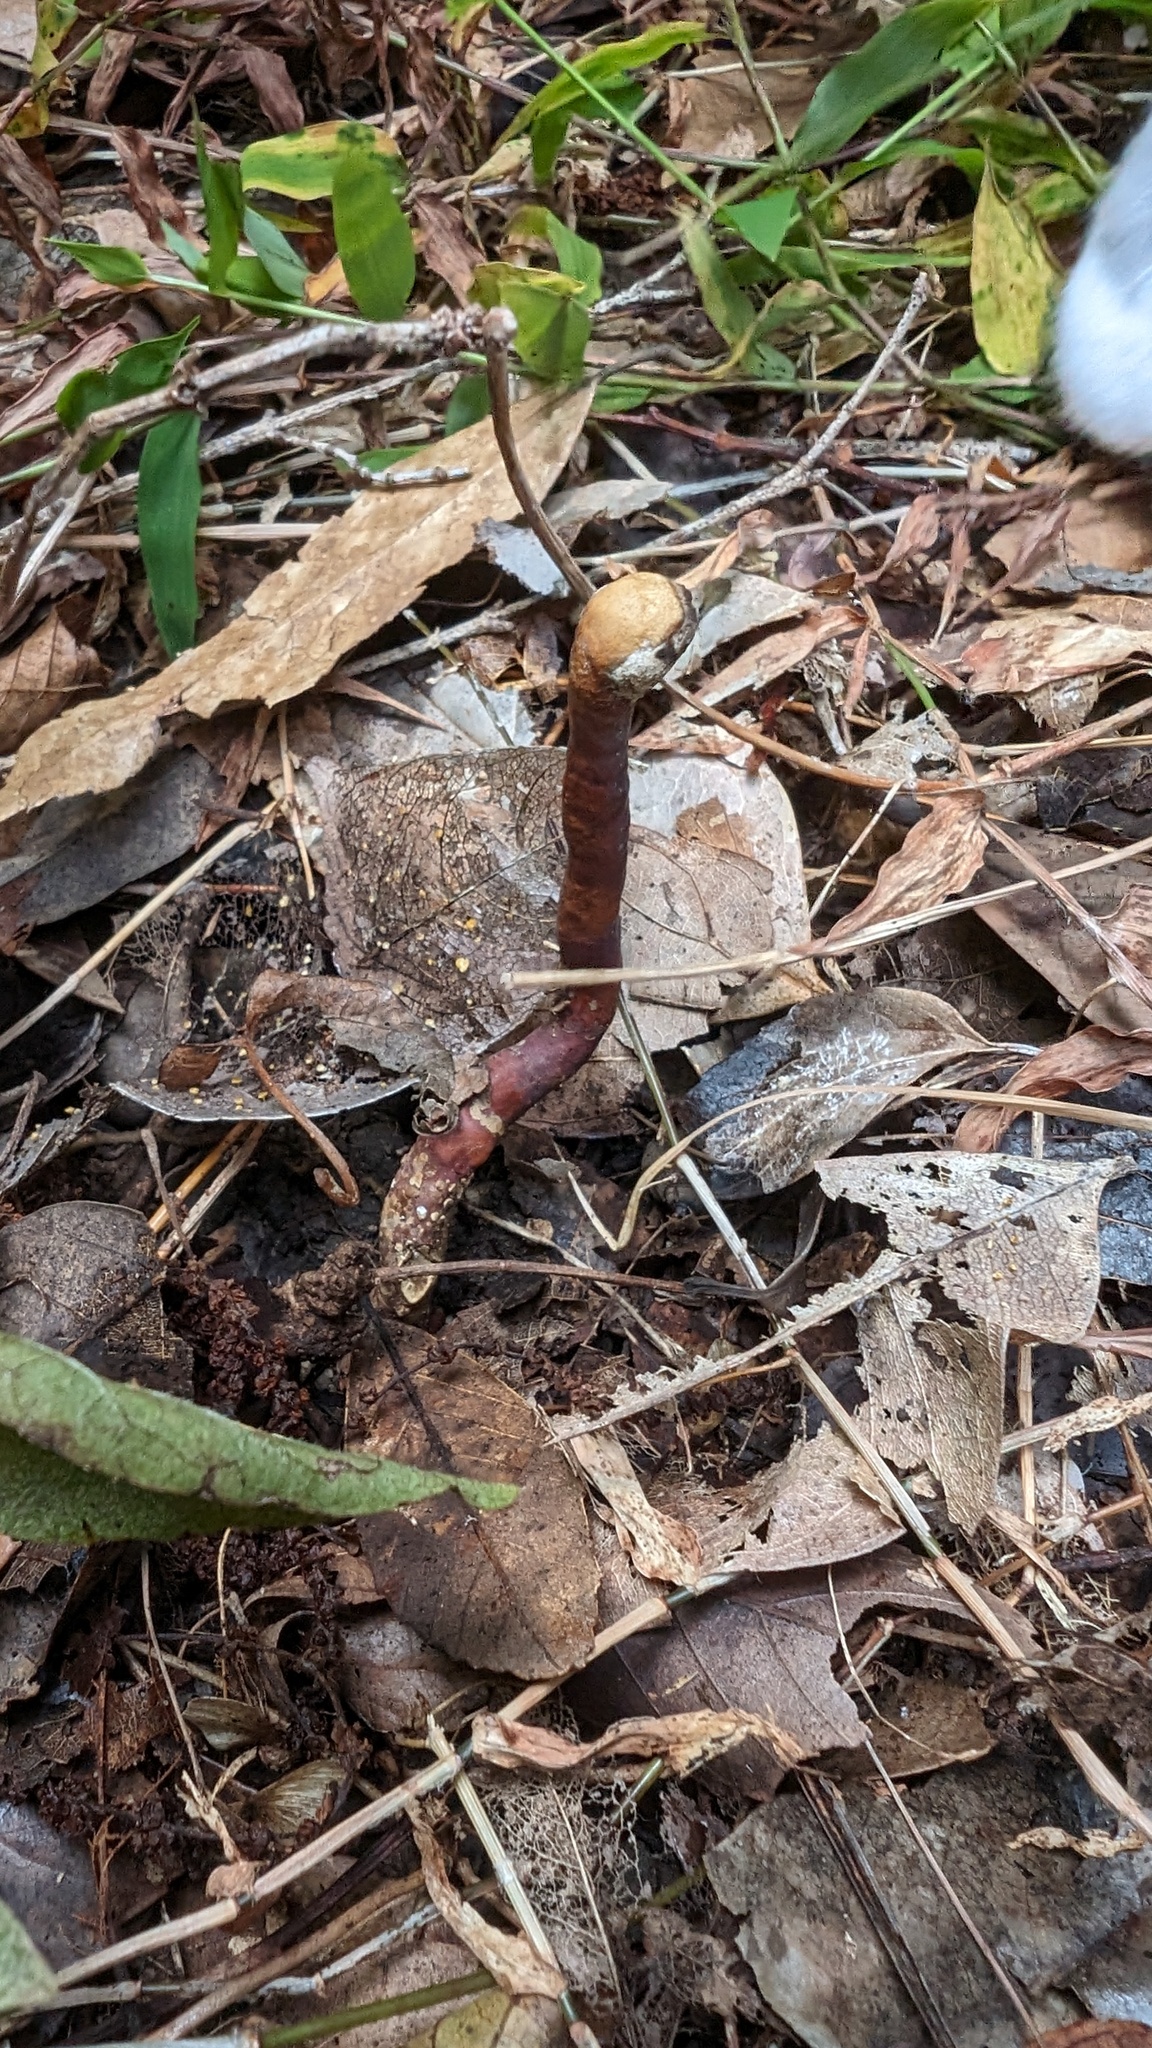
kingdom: Fungi
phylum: Basidiomycota
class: Agaricomycetes
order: Polyporales
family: Polyporaceae
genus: Ganoderma
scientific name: Ganoderma lucidum
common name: Lacquered bracket
